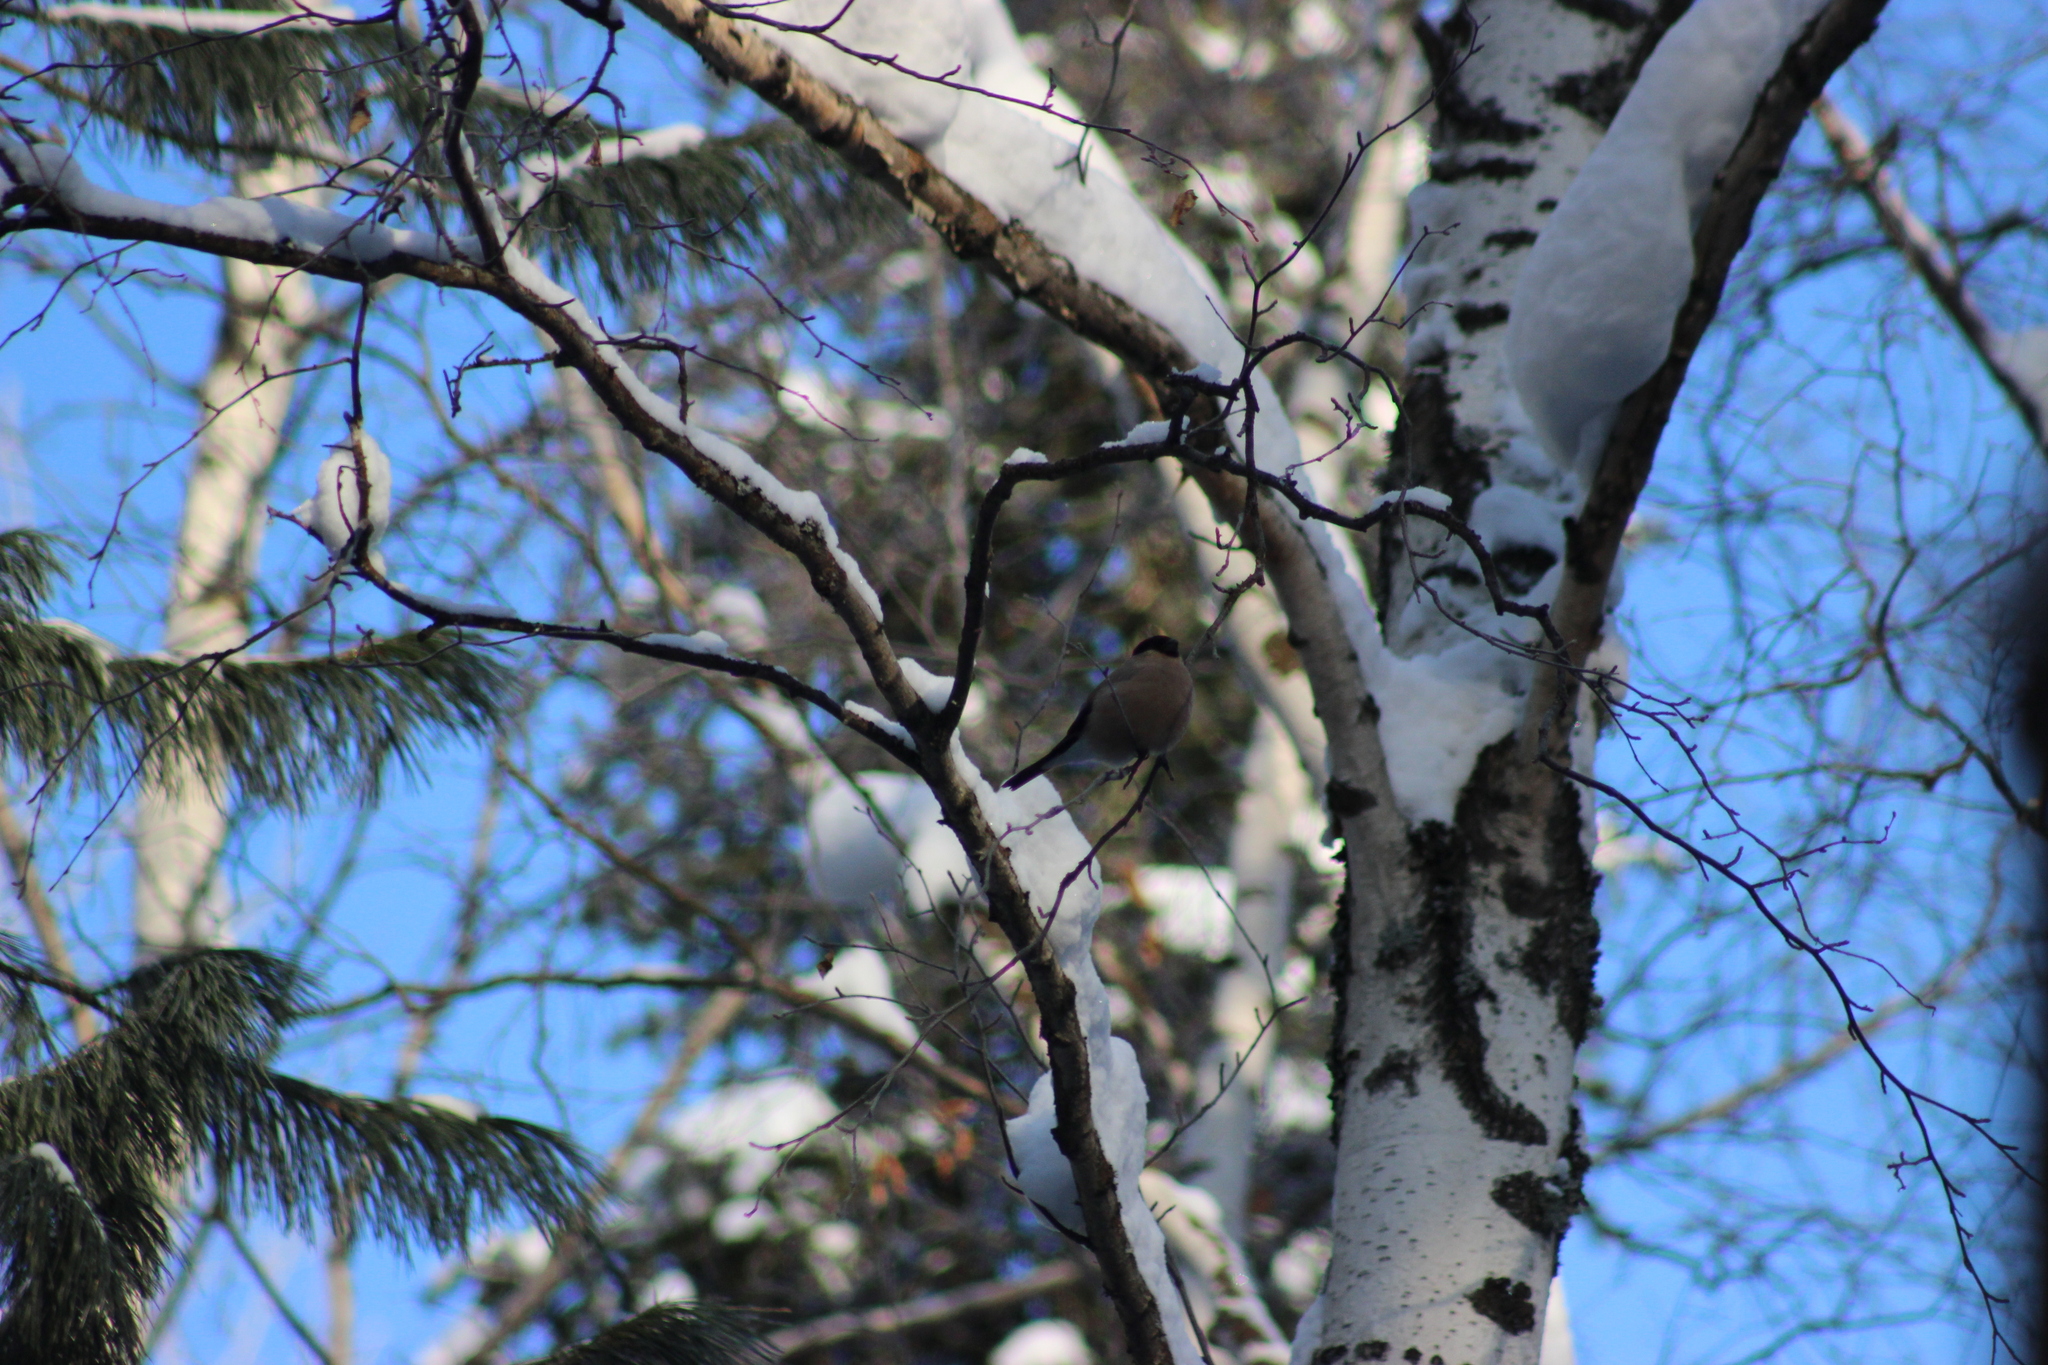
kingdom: Animalia
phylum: Chordata
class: Aves
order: Passeriformes
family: Fringillidae
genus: Pyrrhula
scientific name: Pyrrhula pyrrhula
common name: Eurasian bullfinch
